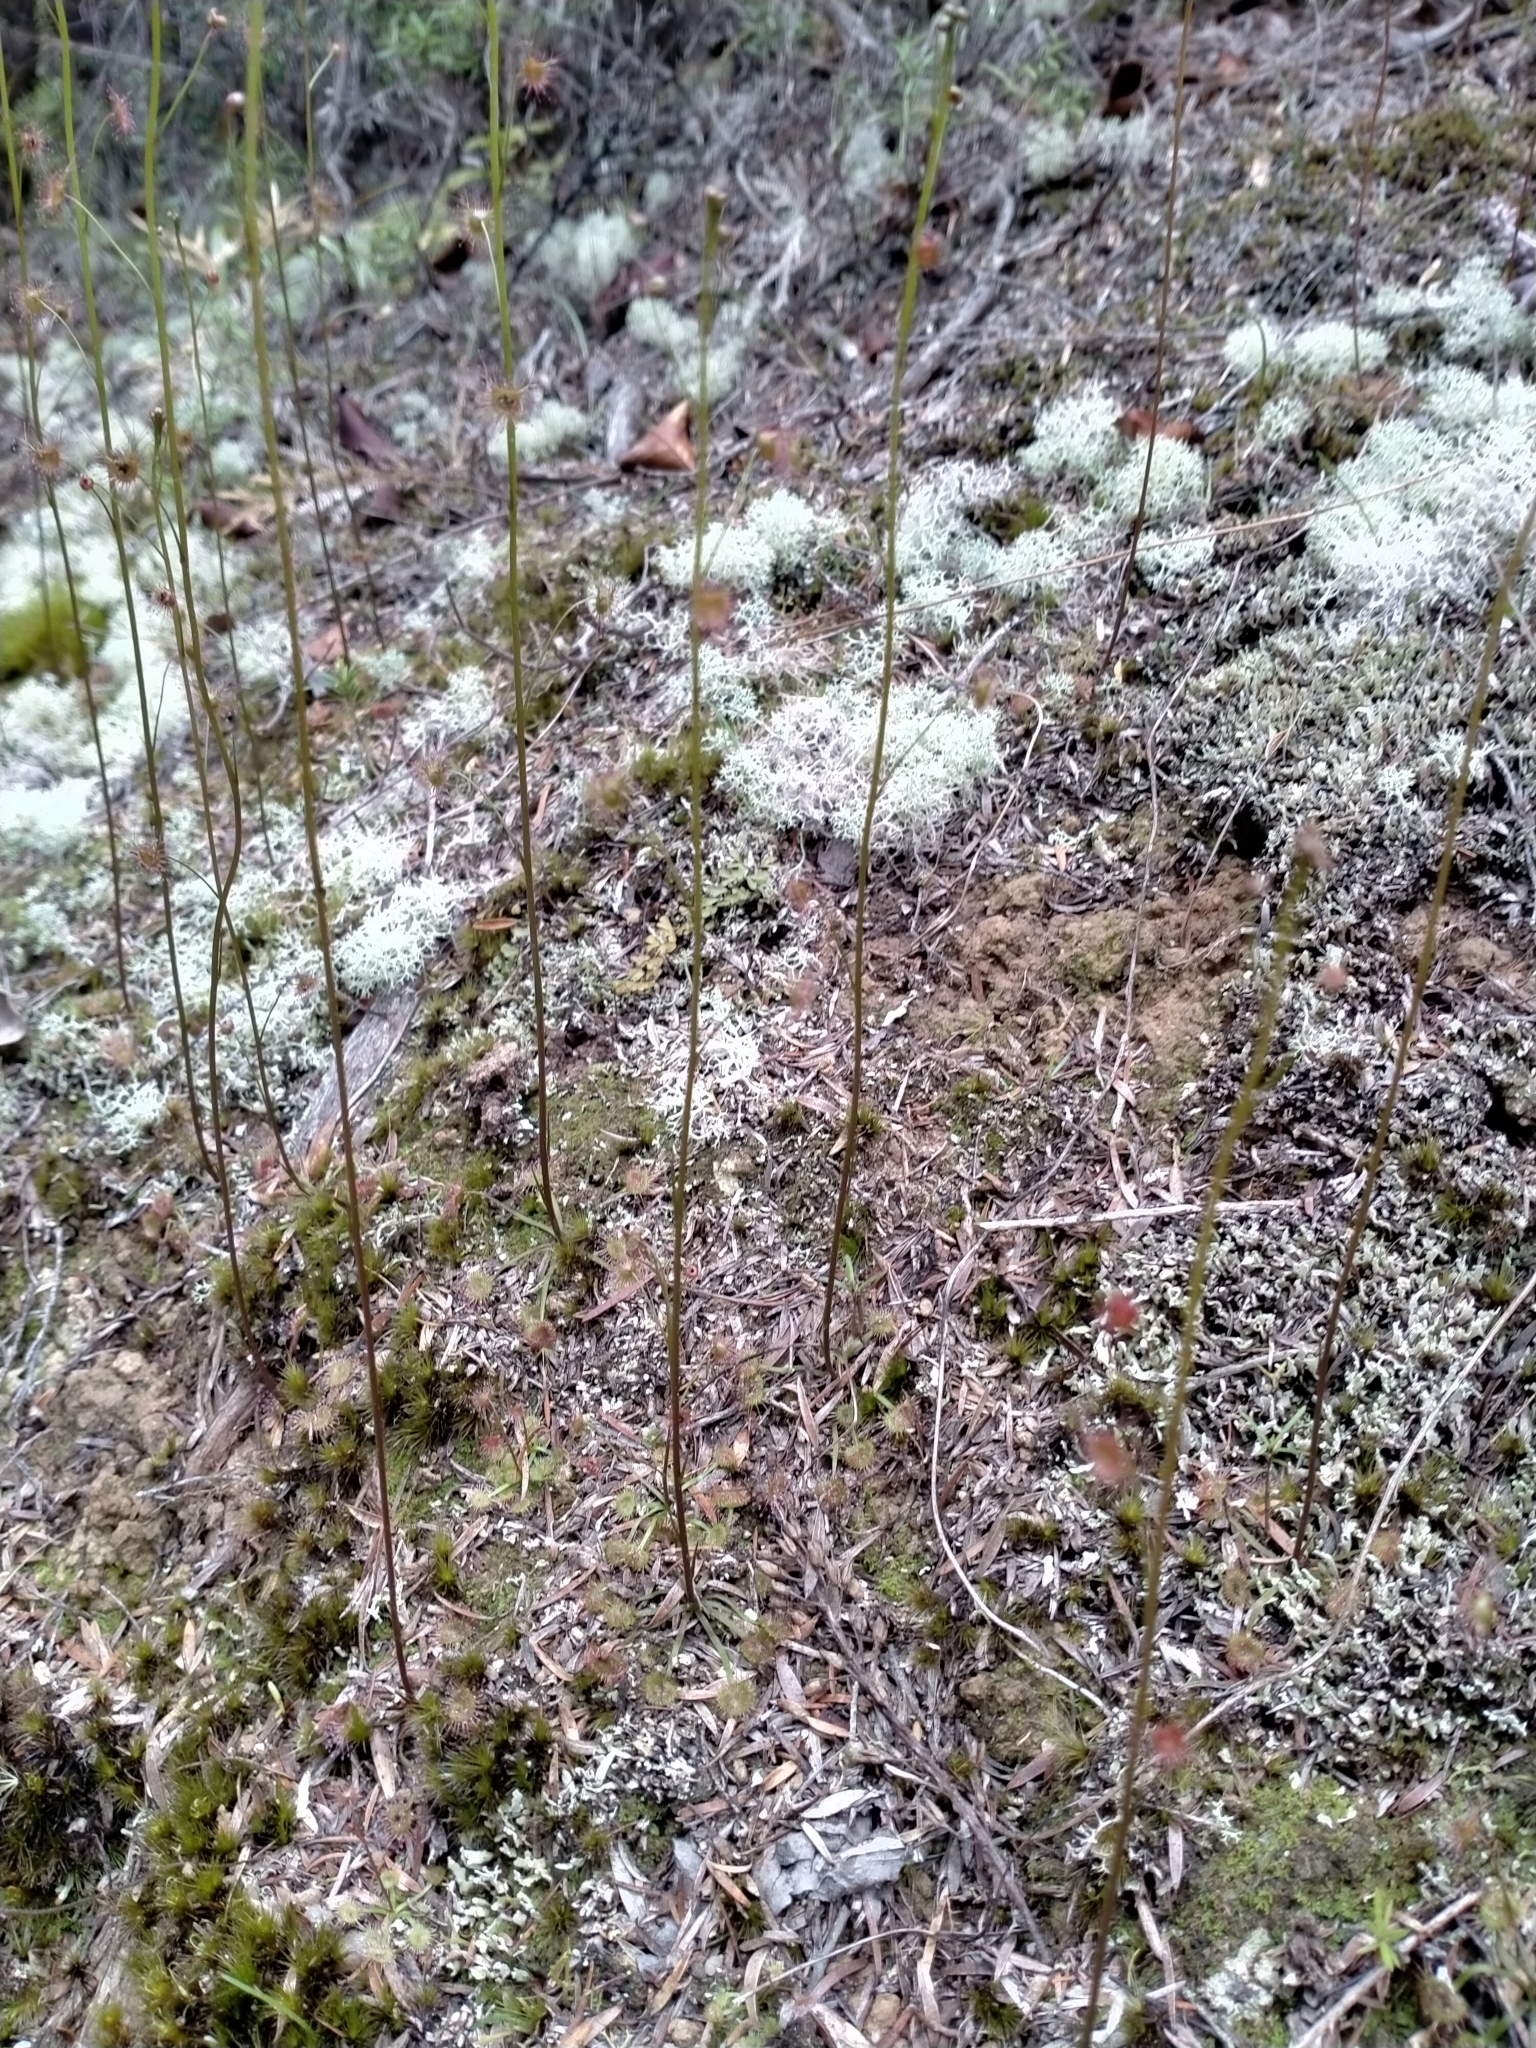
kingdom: Plantae
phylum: Tracheophyta
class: Magnoliopsida
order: Caryophyllales
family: Droseraceae
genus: Drosera
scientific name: Drosera peltata
